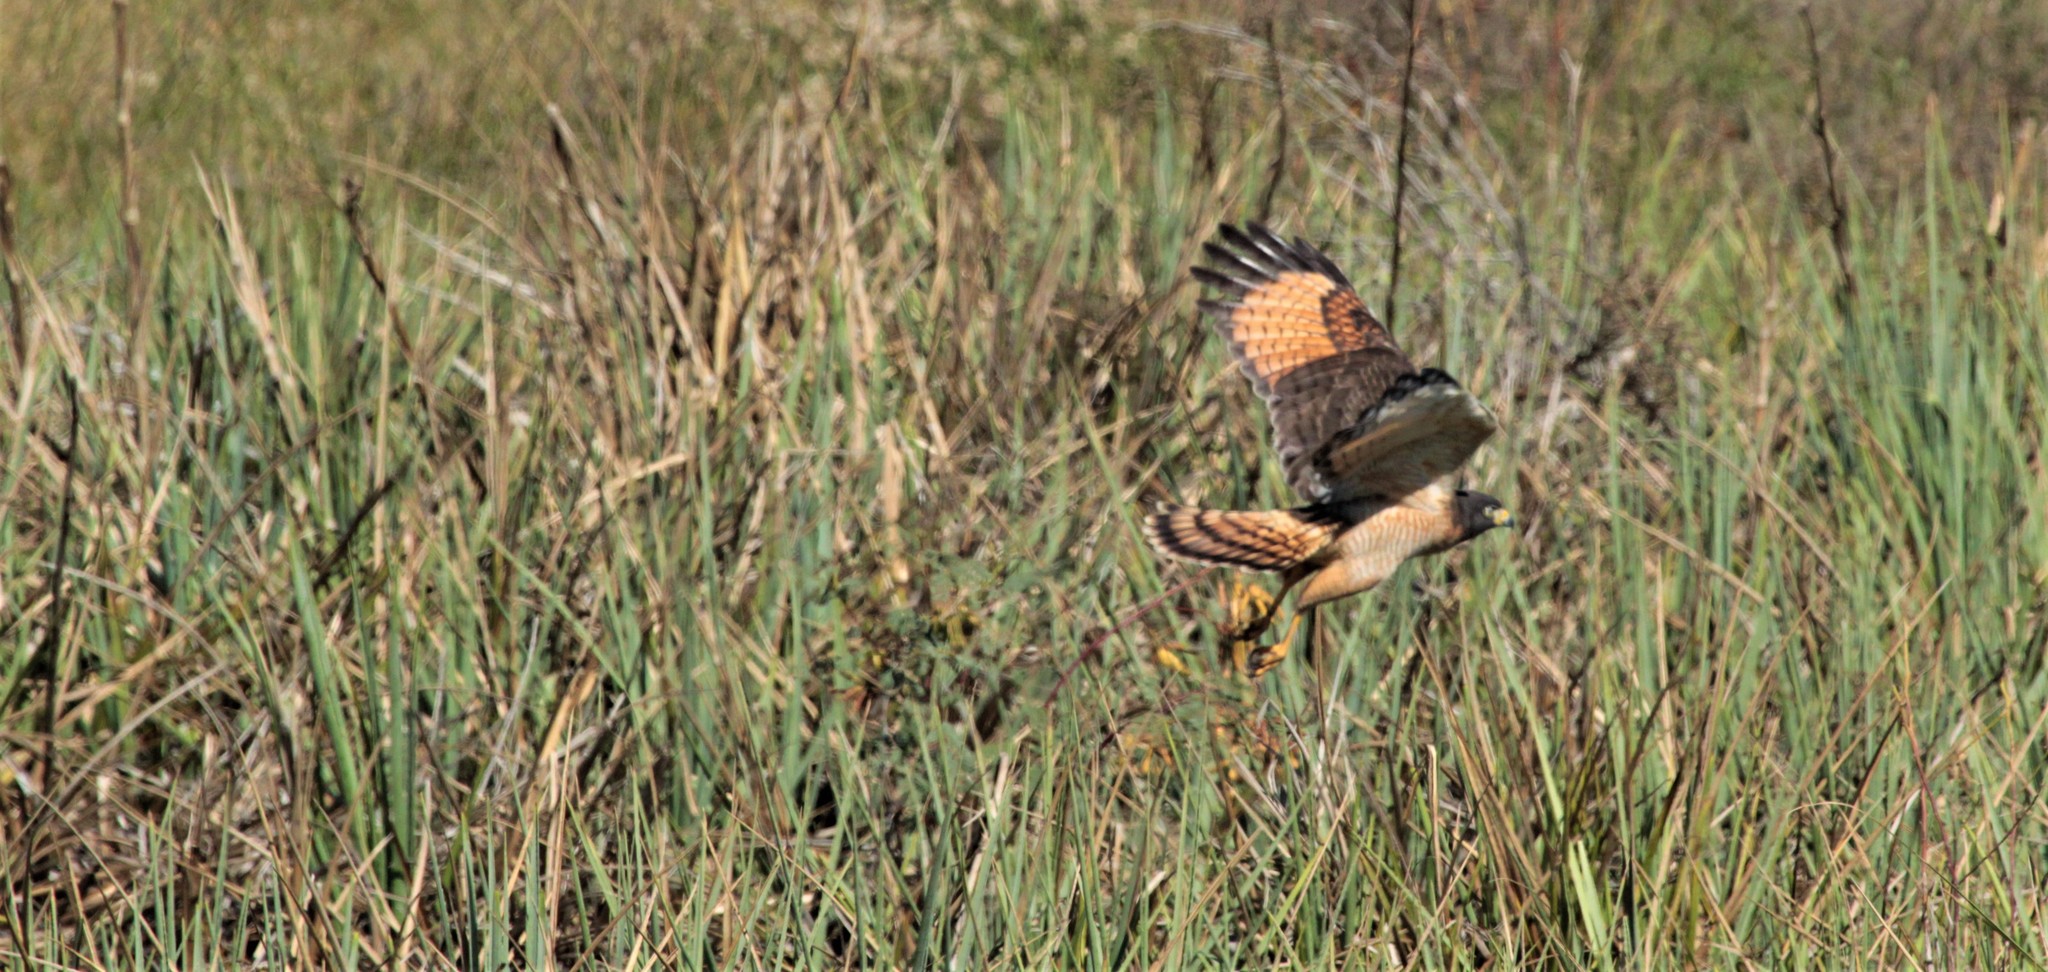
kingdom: Animalia
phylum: Chordata
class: Aves
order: Accipitriformes
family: Accipitridae
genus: Rupornis
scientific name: Rupornis magnirostris
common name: Roadside hawk
